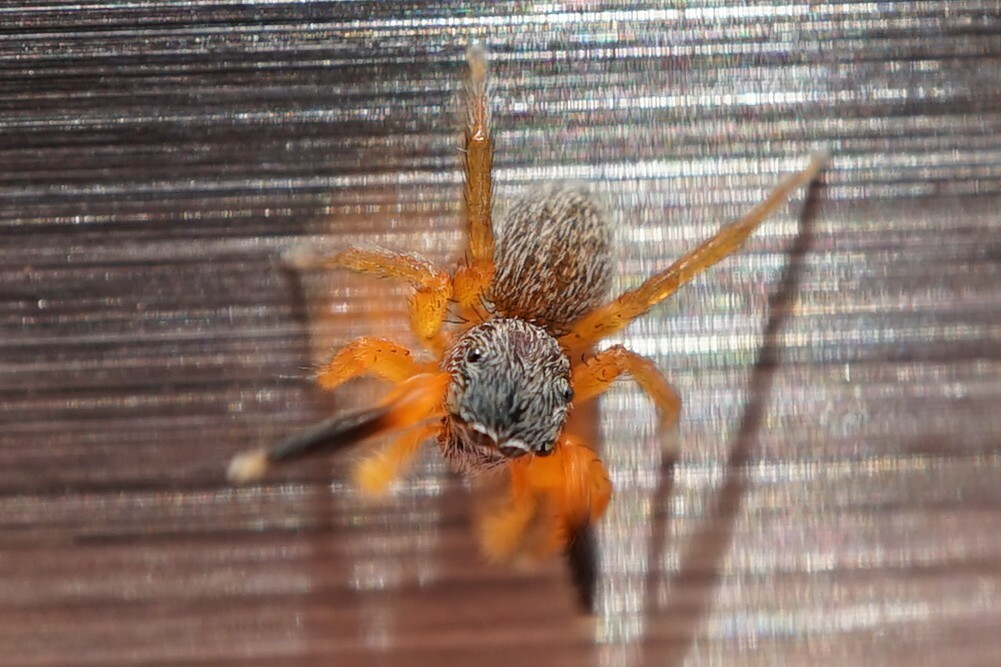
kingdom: Animalia
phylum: Arthropoda
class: Arachnida
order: Araneae
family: Salticidae
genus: Euophrys
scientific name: Euophrys kataokai
